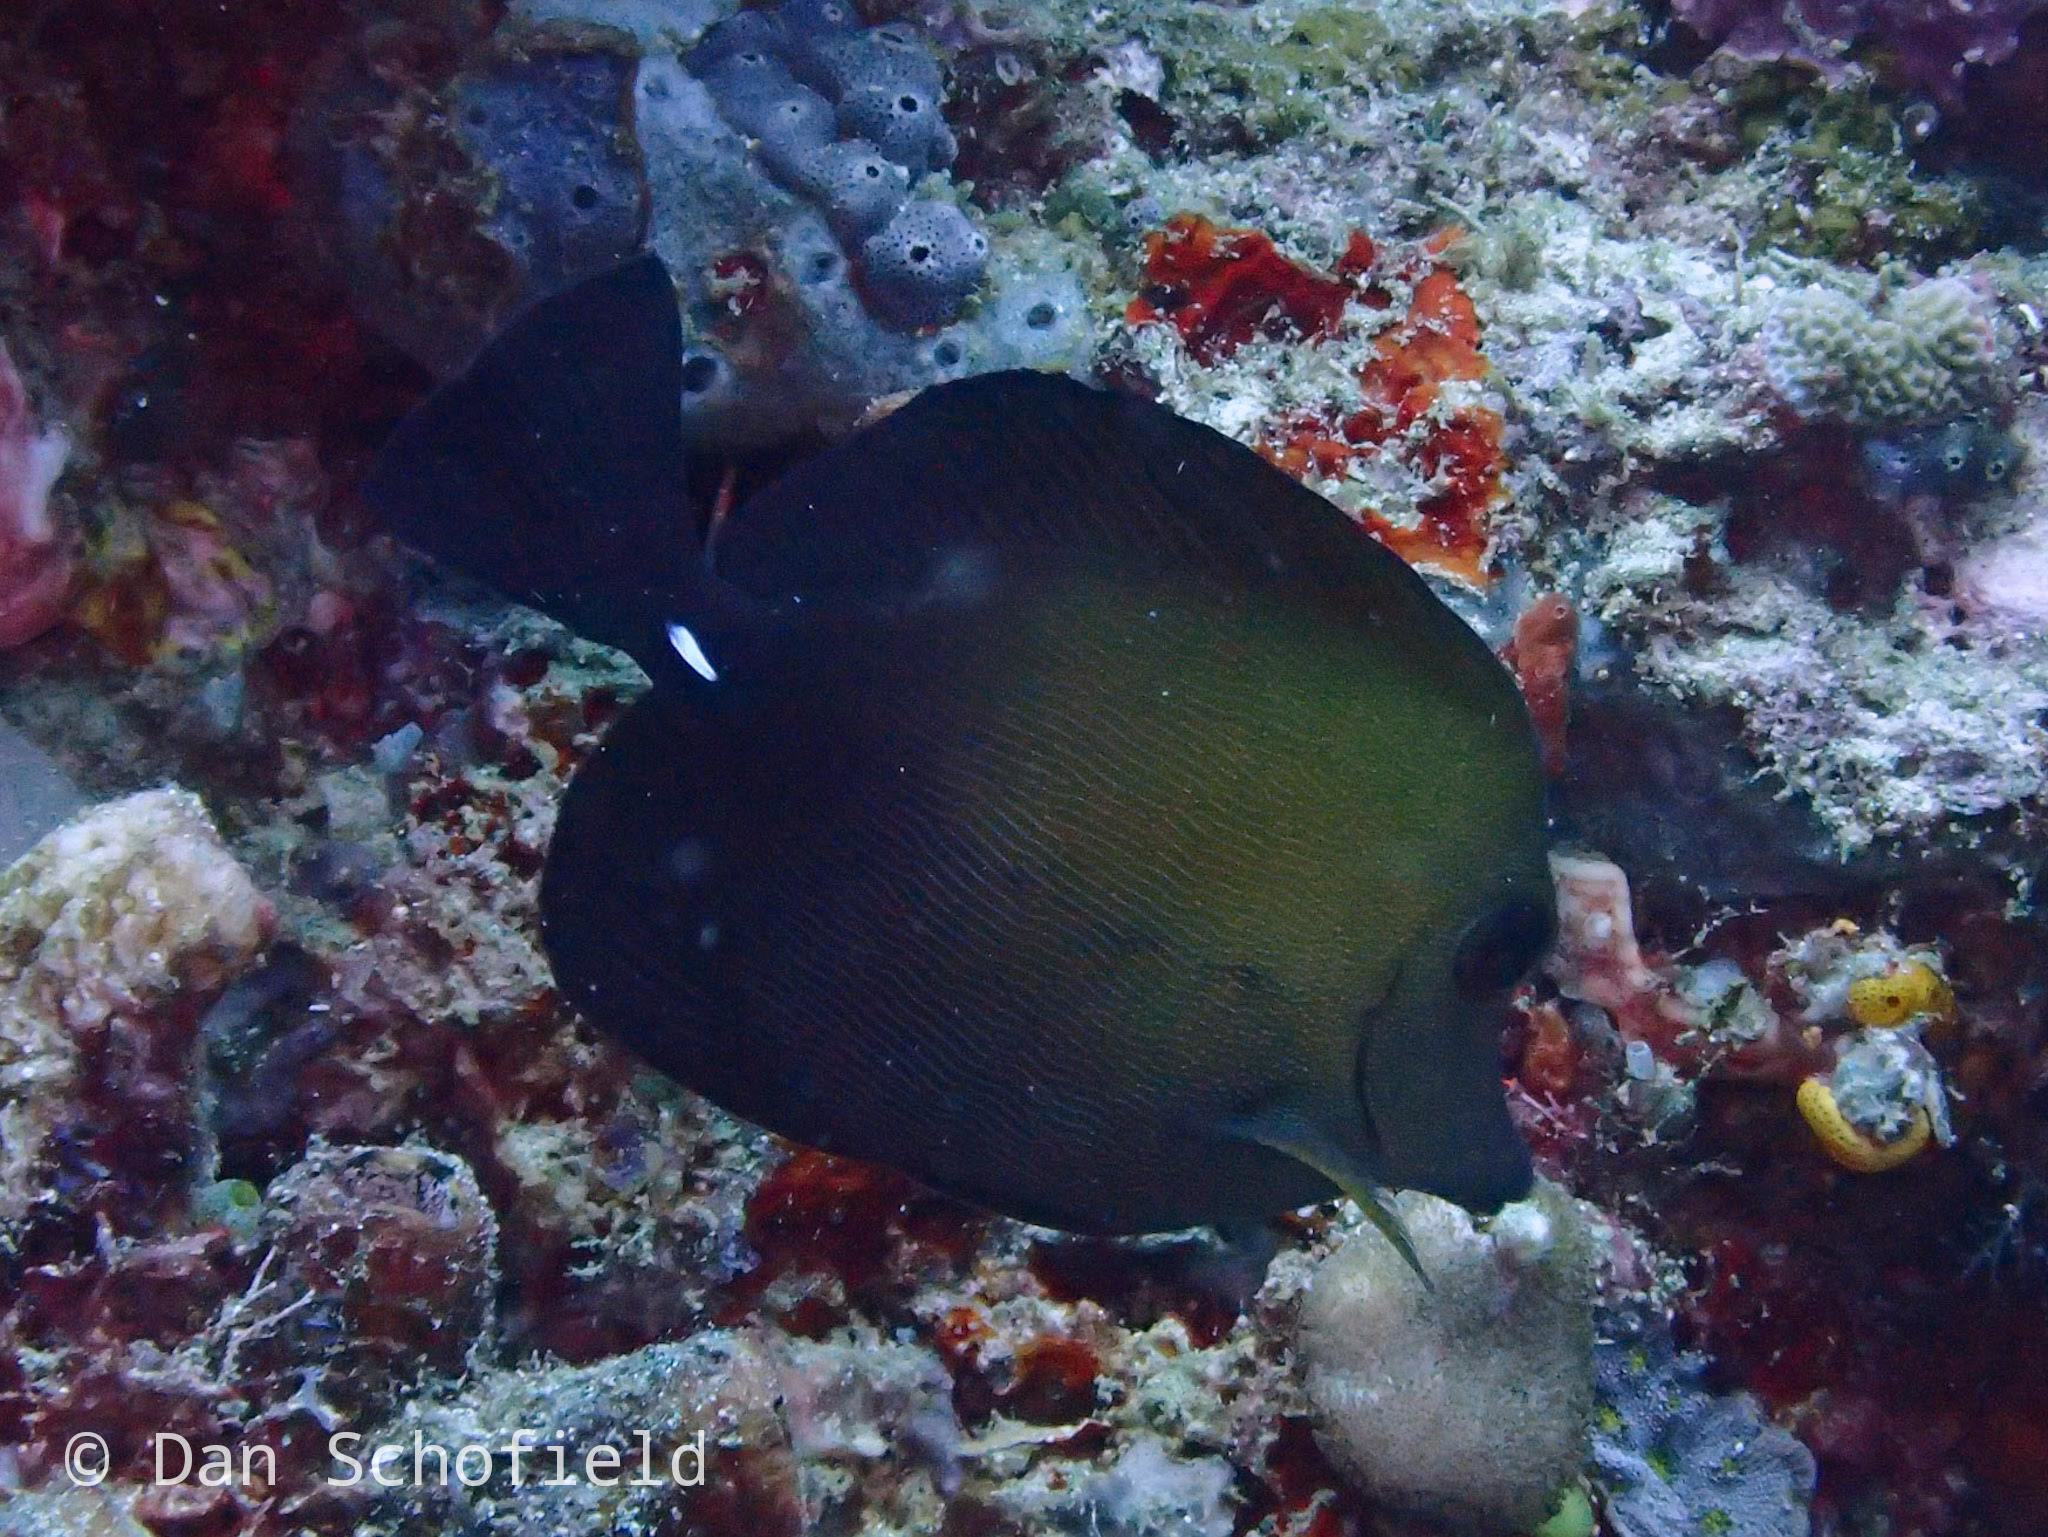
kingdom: Animalia
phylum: Chordata
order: Perciformes
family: Acanthuridae
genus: Zebrasoma
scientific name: Zebrasoma scopas
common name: Twotone tang
